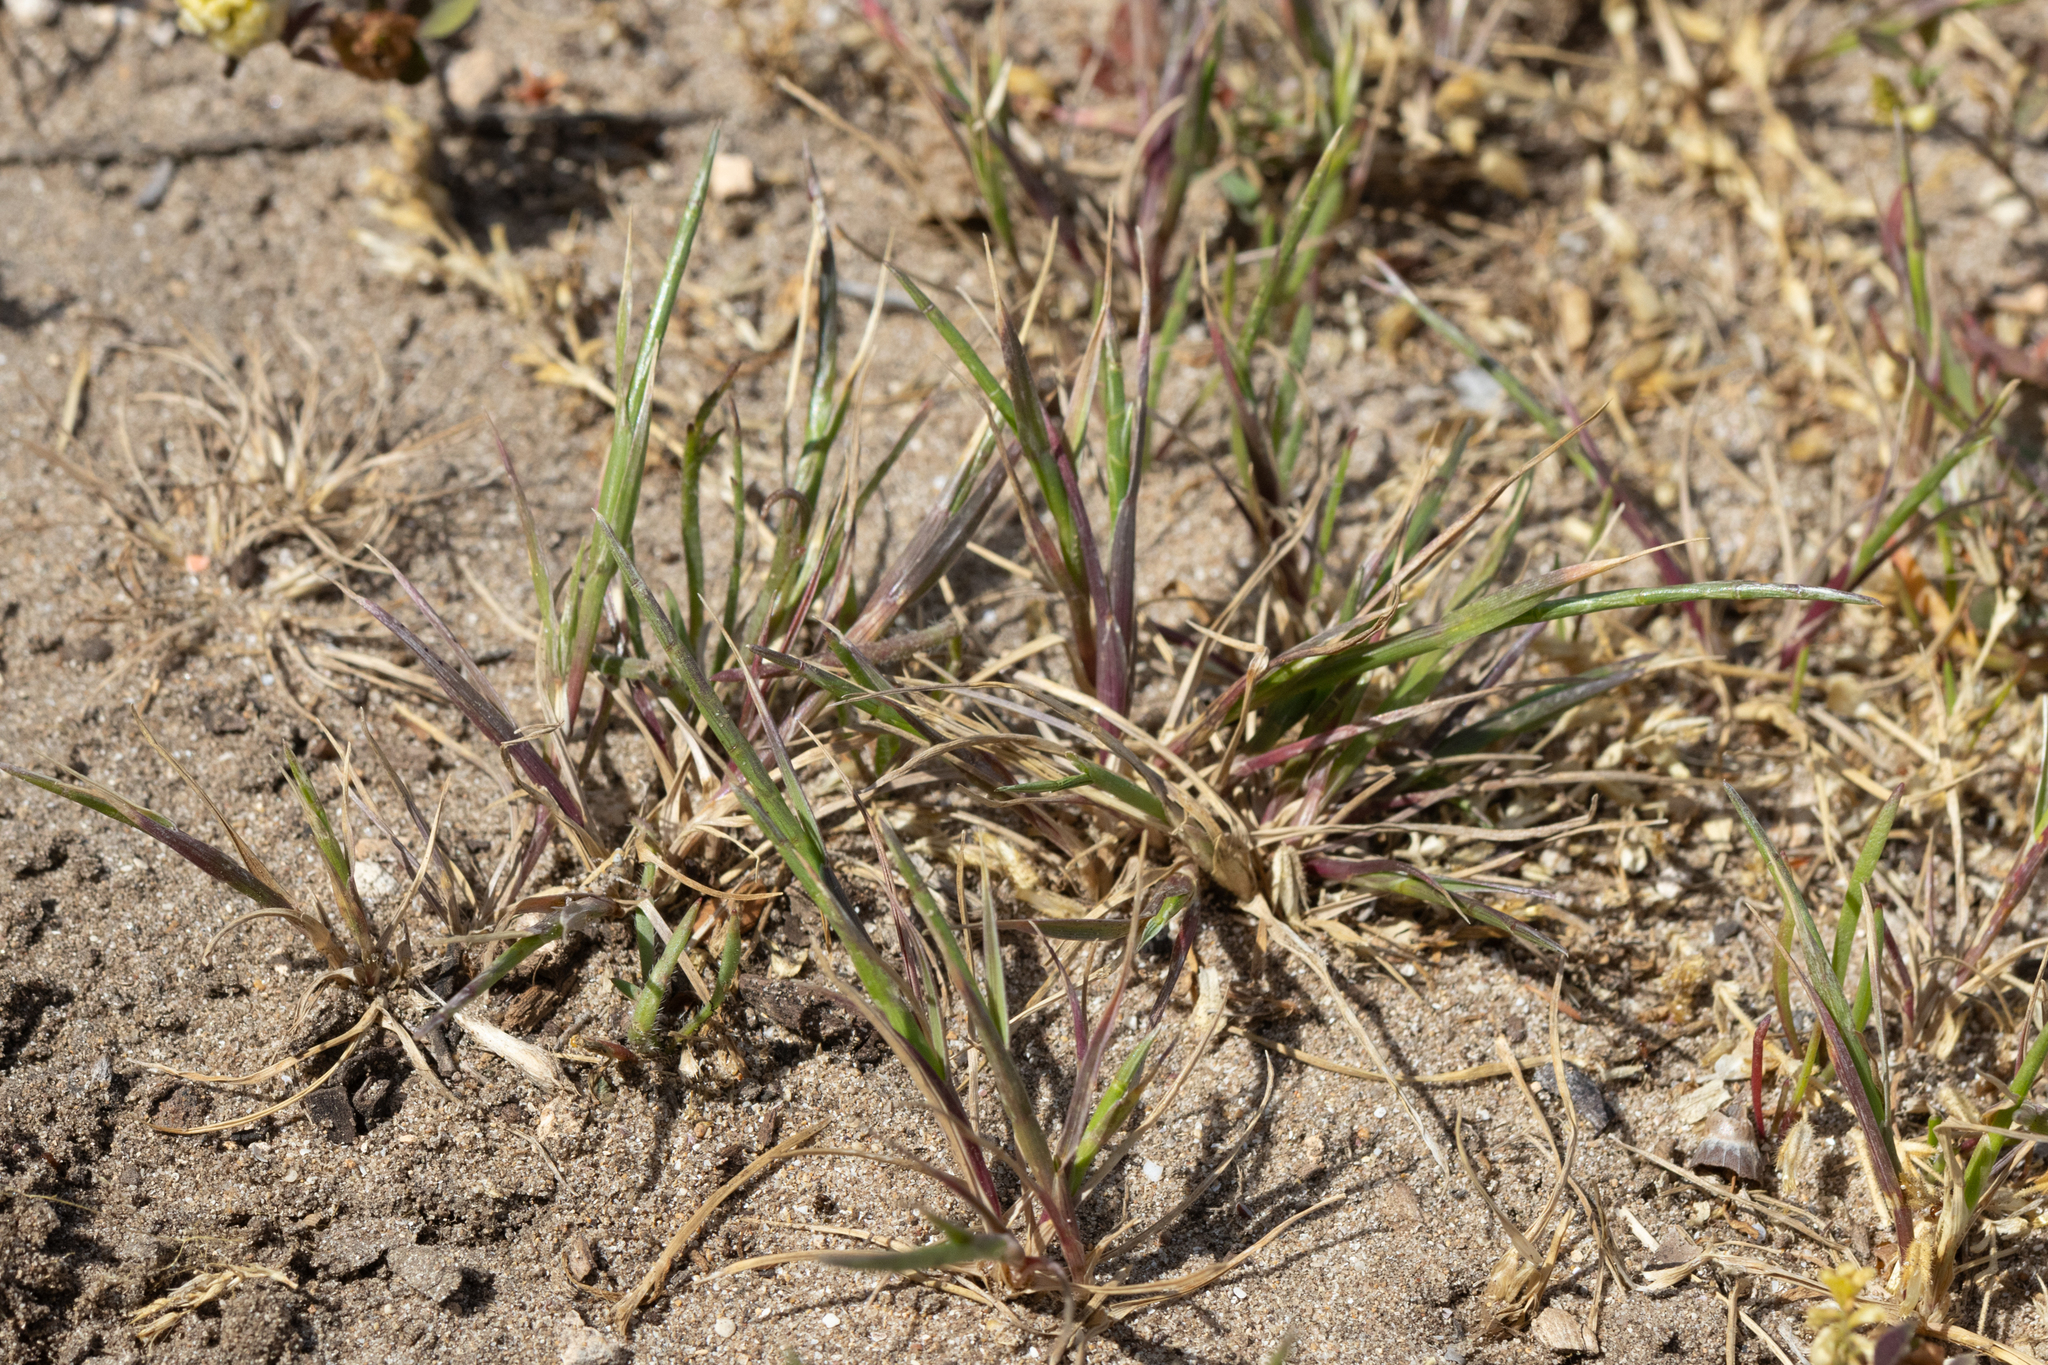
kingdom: Plantae
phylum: Tracheophyta
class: Liliopsida
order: Poales
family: Poaceae
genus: Parapholis
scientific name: Parapholis incurva
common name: Curved sicklegrass
